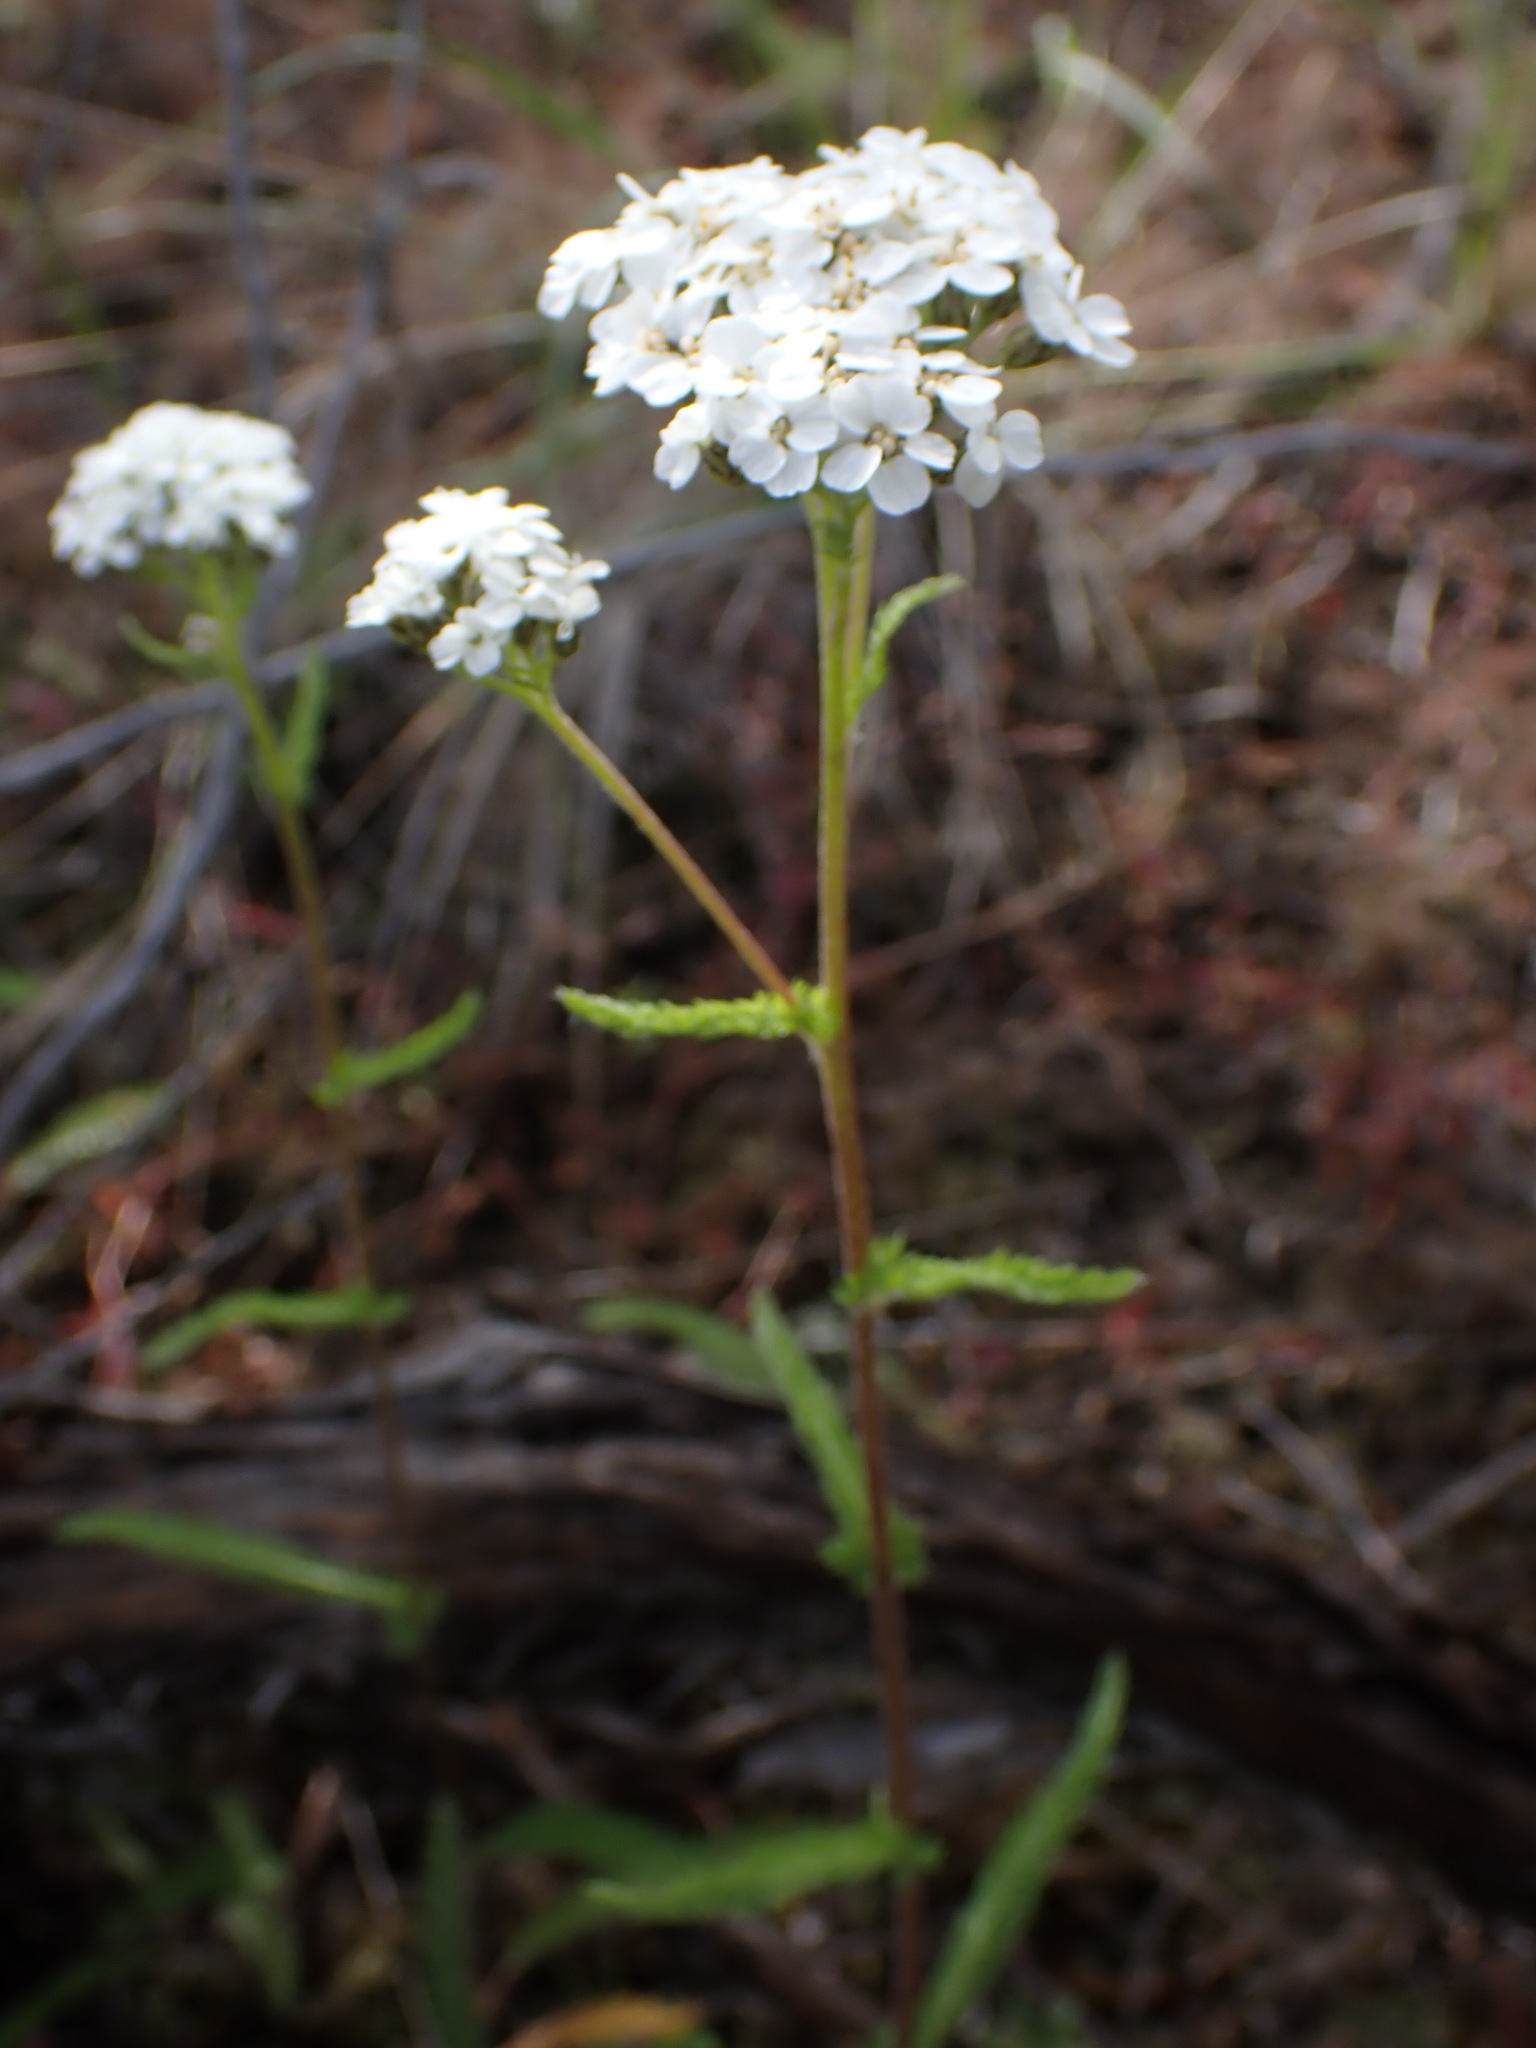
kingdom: Plantae
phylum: Tracheophyta
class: Magnoliopsida
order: Asterales
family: Asteraceae
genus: Achillea
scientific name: Achillea millefolium
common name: Yarrow
